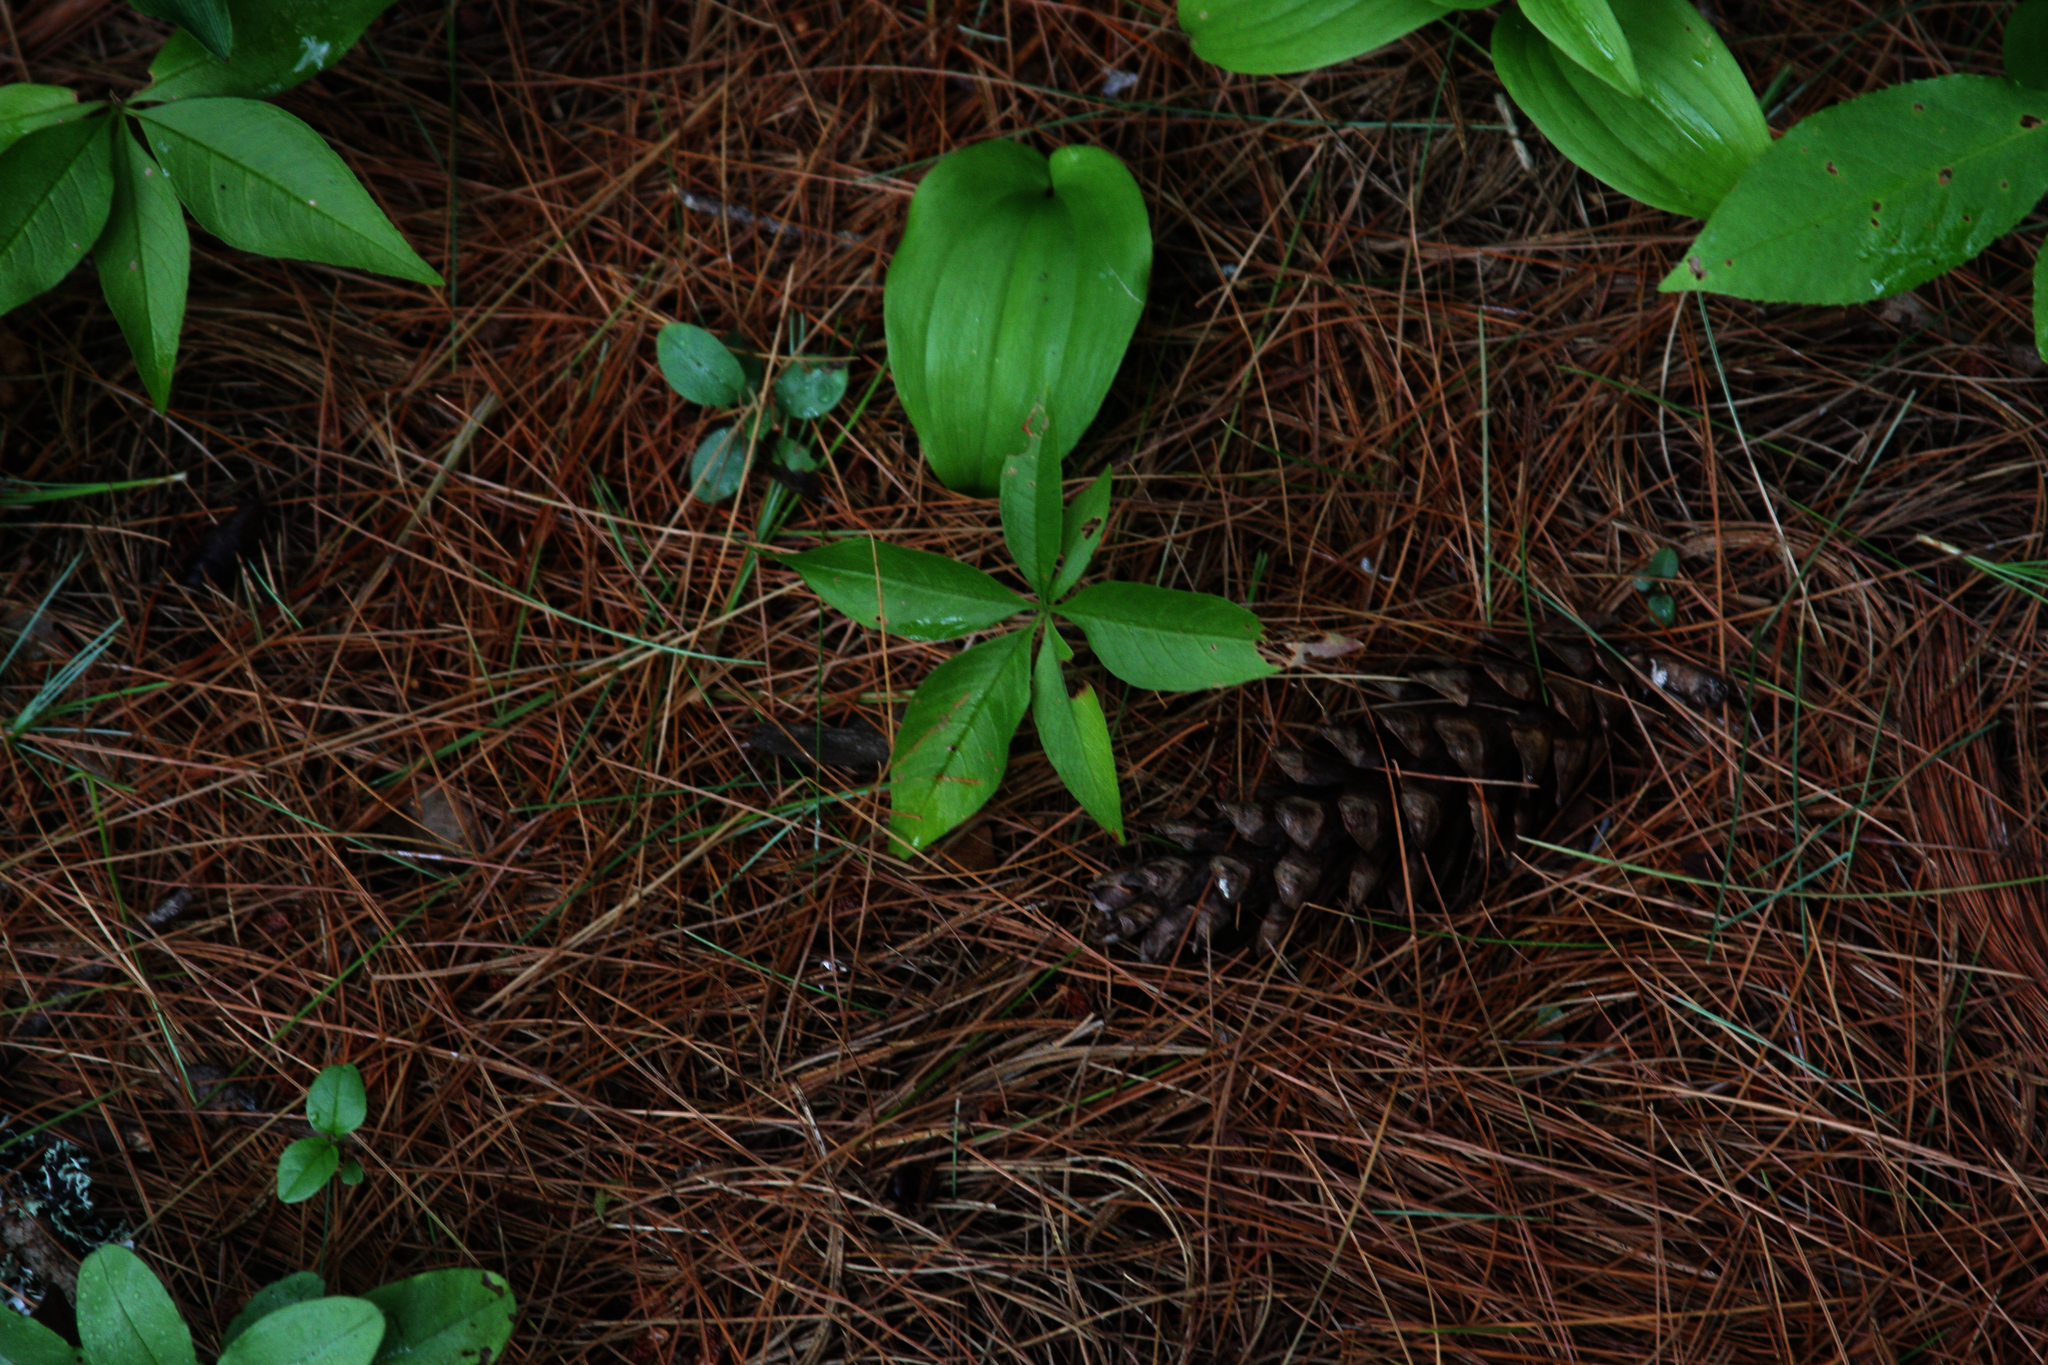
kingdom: Plantae
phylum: Tracheophyta
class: Liliopsida
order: Asparagales
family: Asparagaceae
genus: Maianthemum
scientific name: Maianthemum canadense
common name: False lily-of-the-valley
